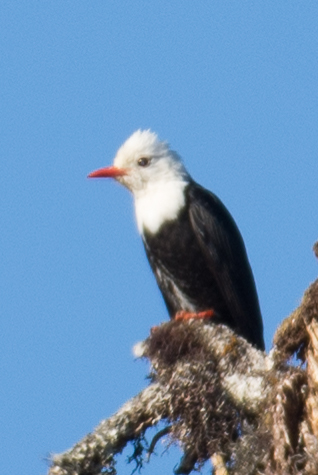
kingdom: Animalia
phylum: Chordata
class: Aves
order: Passeriformes
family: Pycnonotidae
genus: Hypsipetes
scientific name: Hypsipetes leucocephalus
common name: Black bulbul
